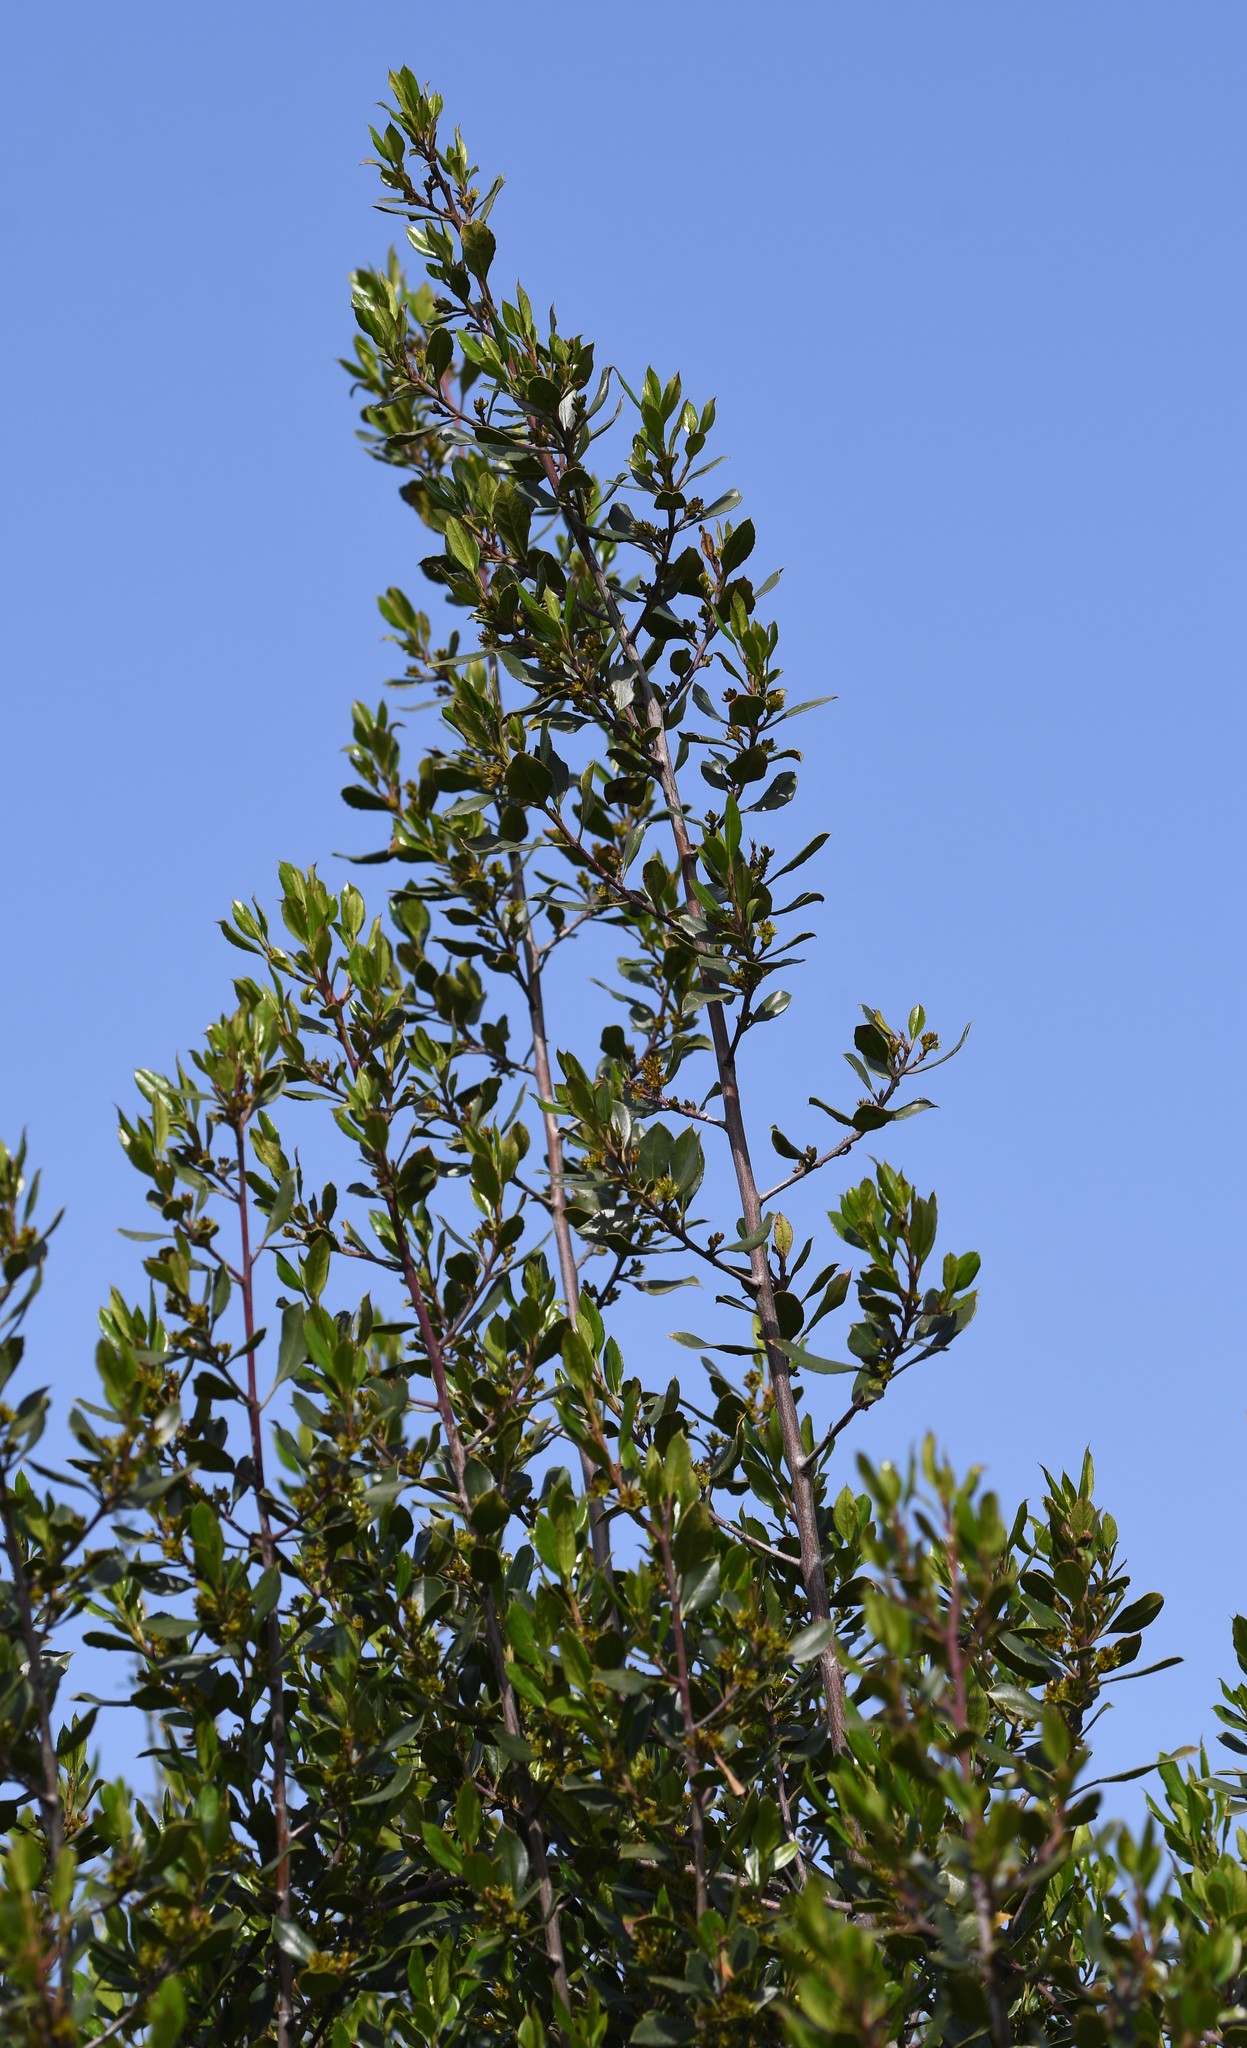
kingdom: Plantae
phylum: Tracheophyta
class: Magnoliopsida
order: Rosales
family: Rhamnaceae
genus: Rhamnus
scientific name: Rhamnus alaternus
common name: Mediterranean buckthorn
